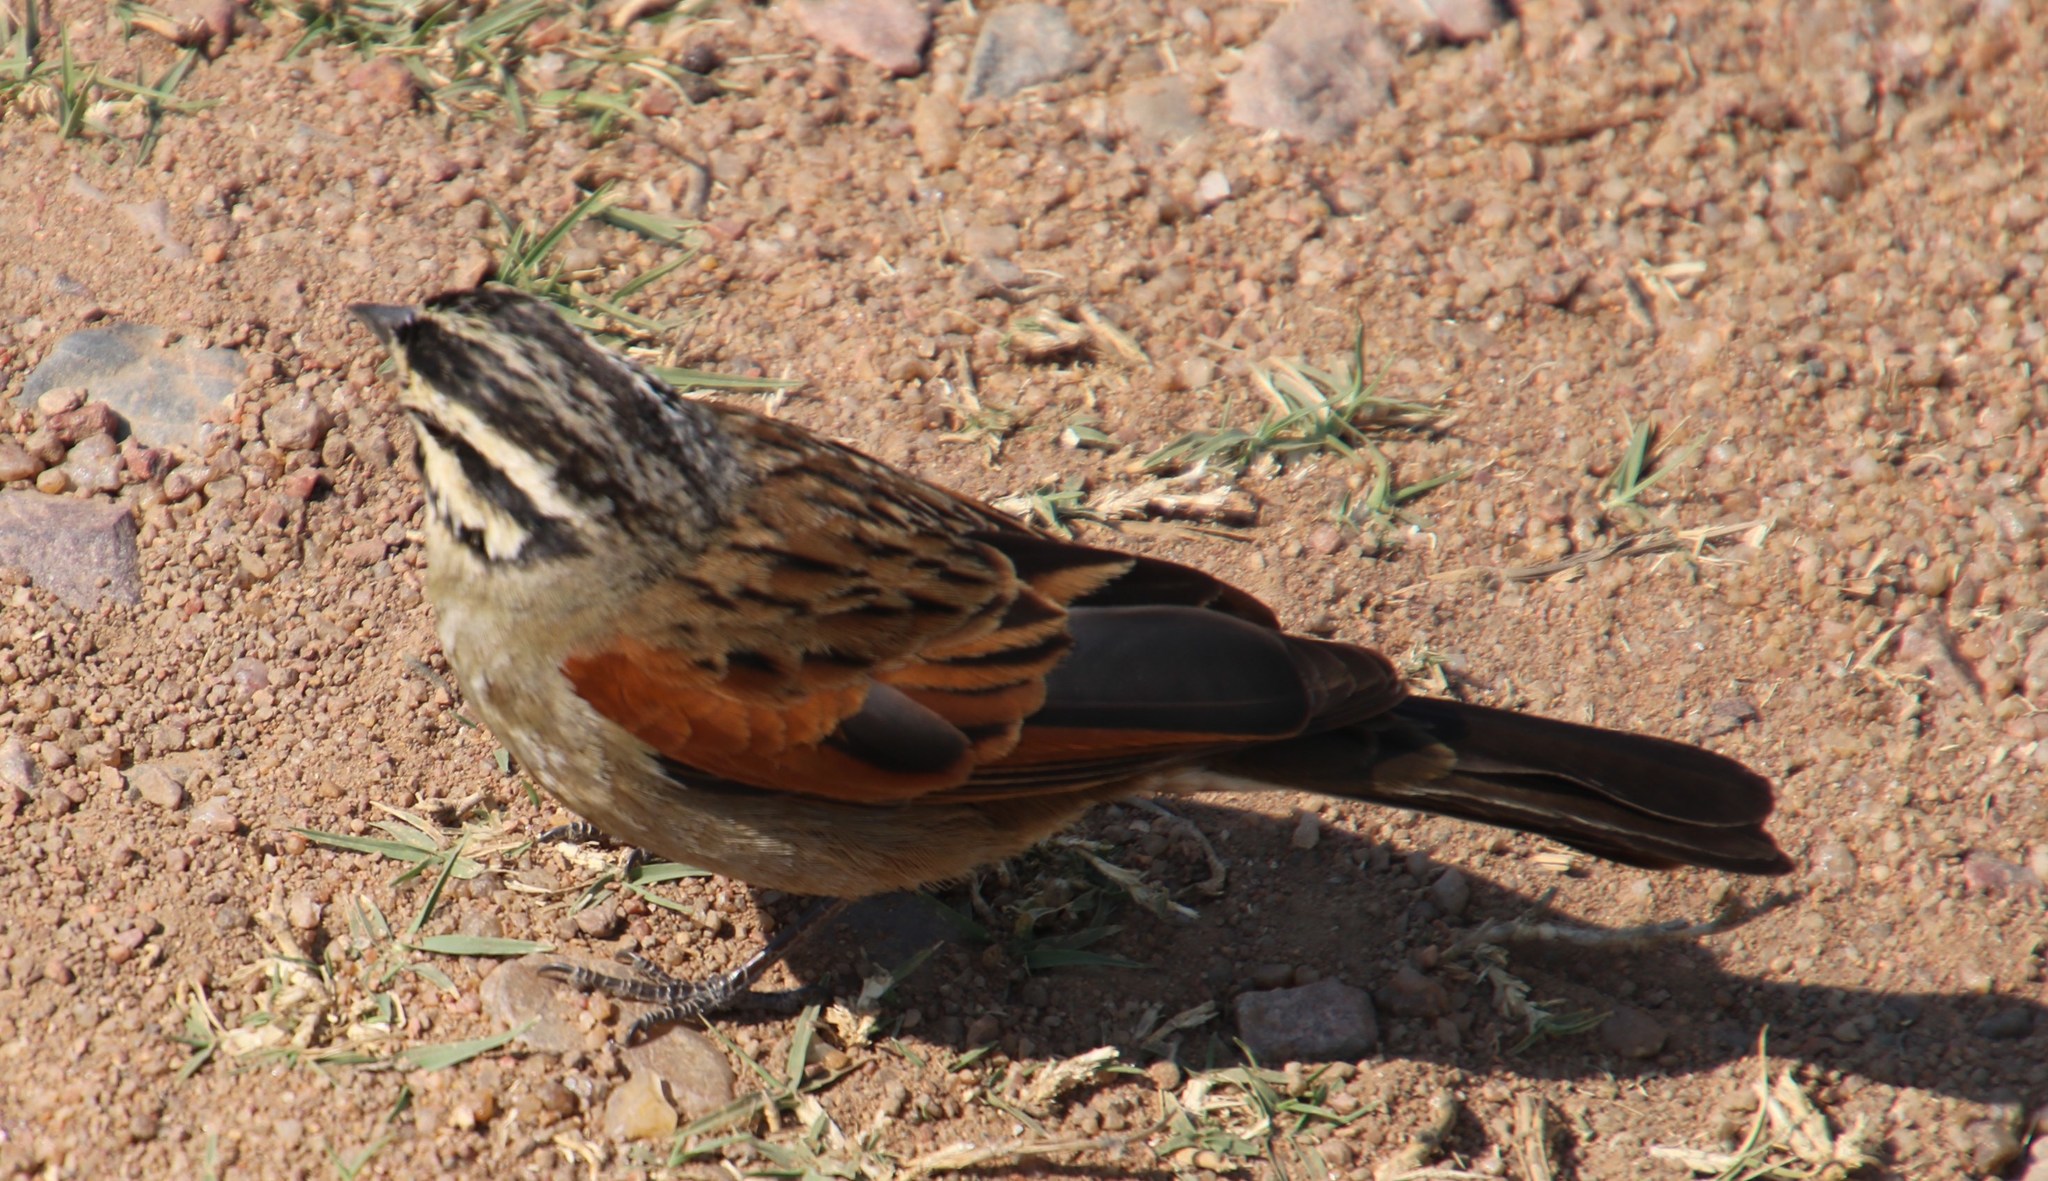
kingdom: Animalia
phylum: Chordata
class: Aves
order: Passeriformes
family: Emberizidae
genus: Emberiza
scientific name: Emberiza capensis
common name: Cape bunting
